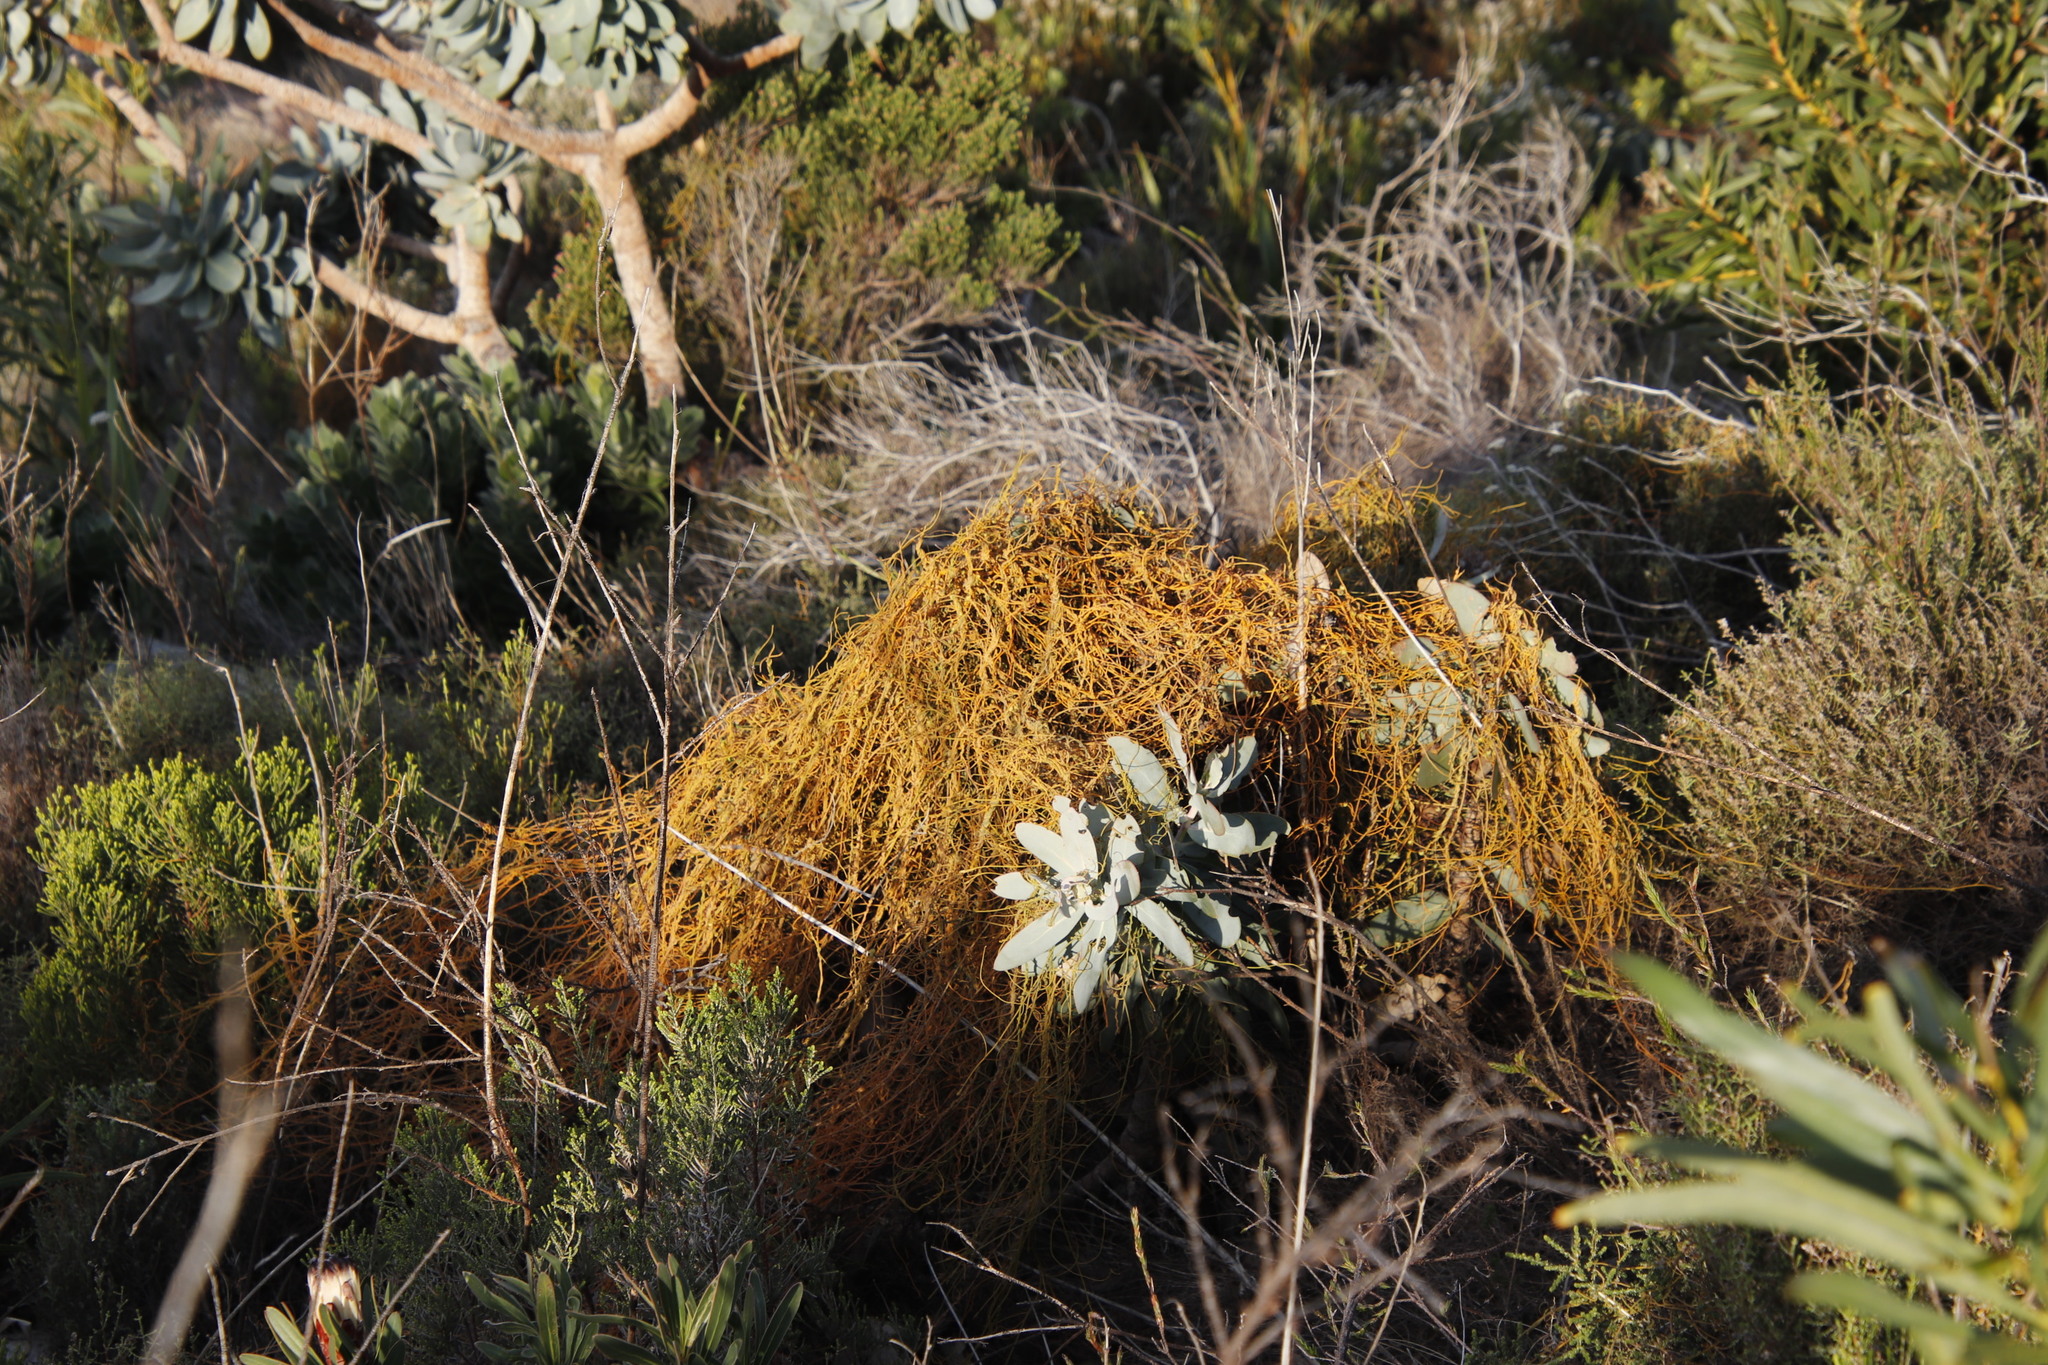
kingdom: Plantae
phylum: Tracheophyta
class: Magnoliopsida
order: Laurales
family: Lauraceae
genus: Cassytha
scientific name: Cassytha ciliolata
